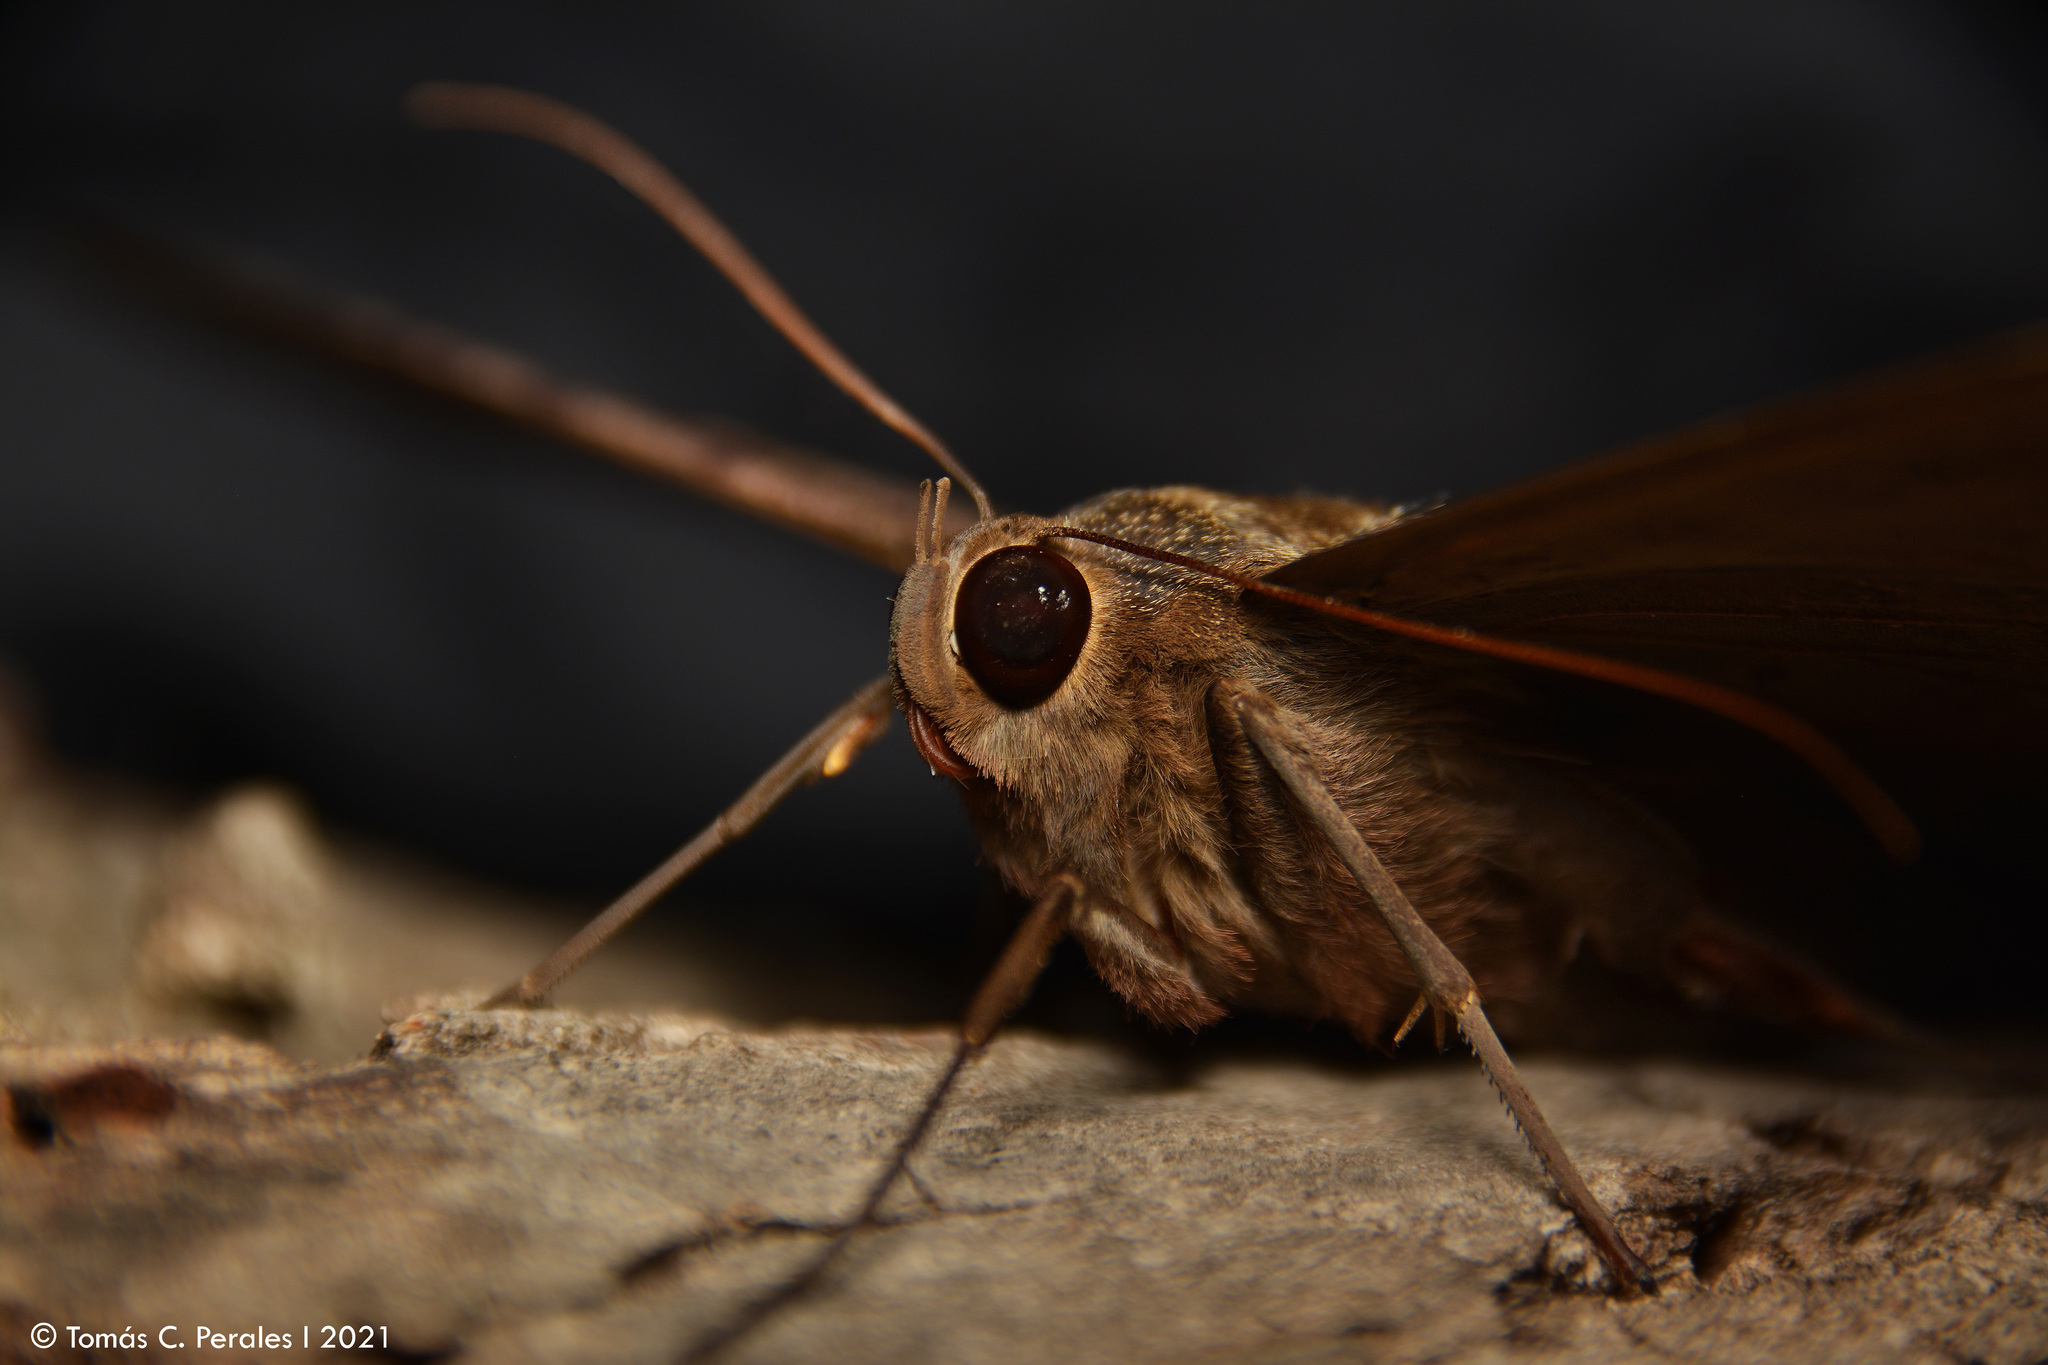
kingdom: Animalia
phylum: Arthropoda
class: Insecta
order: Lepidoptera
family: Erebidae
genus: Ascalapha
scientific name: Ascalapha odorata
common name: Black witch
